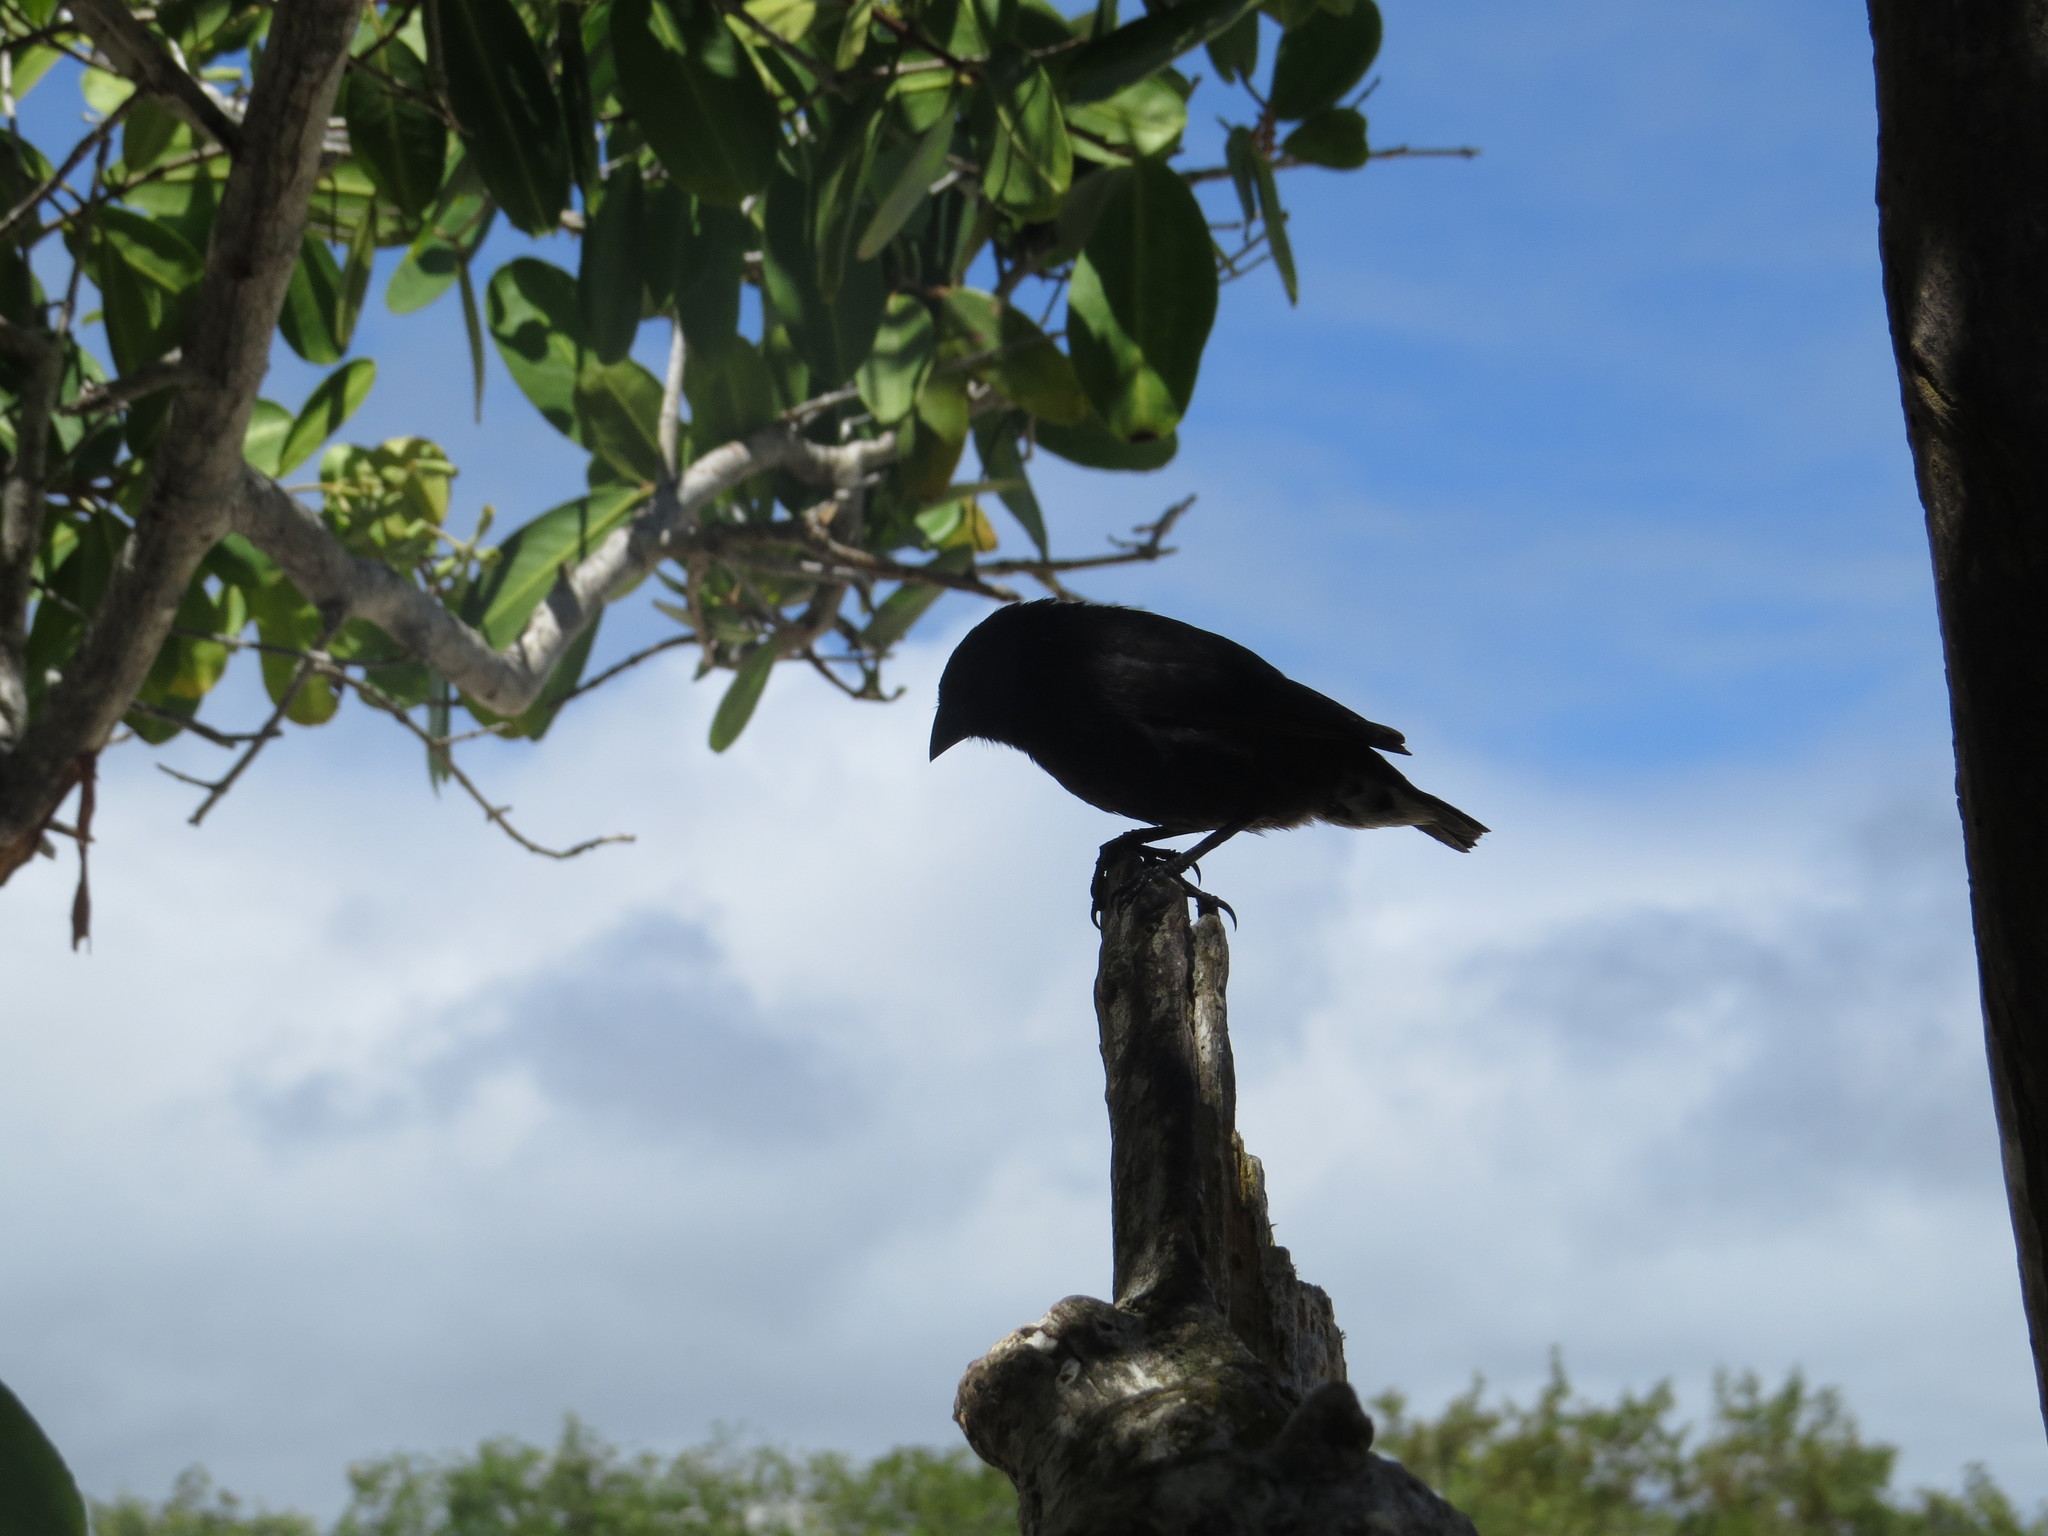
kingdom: Animalia
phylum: Chordata
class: Aves
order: Passeriformes
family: Thraupidae
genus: Geospiza
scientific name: Geospiza fuliginosa
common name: Small ground finch
